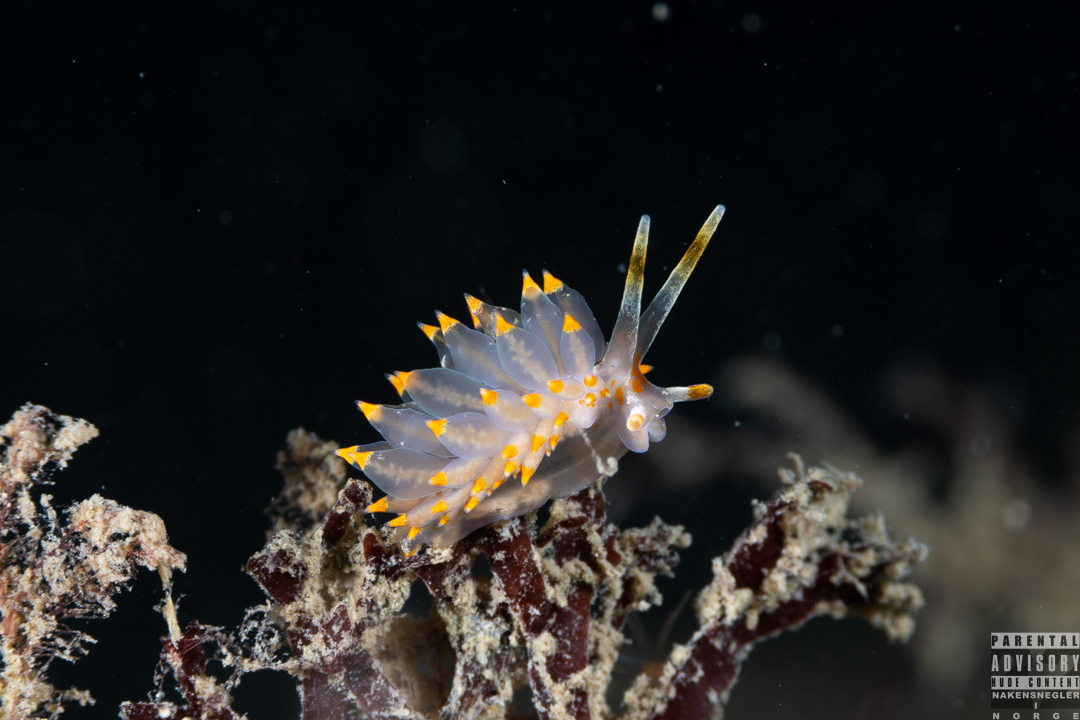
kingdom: Animalia
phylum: Mollusca
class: Gastropoda
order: Nudibranchia
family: Eubranchidae
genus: Amphorina
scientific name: Amphorina farrani
